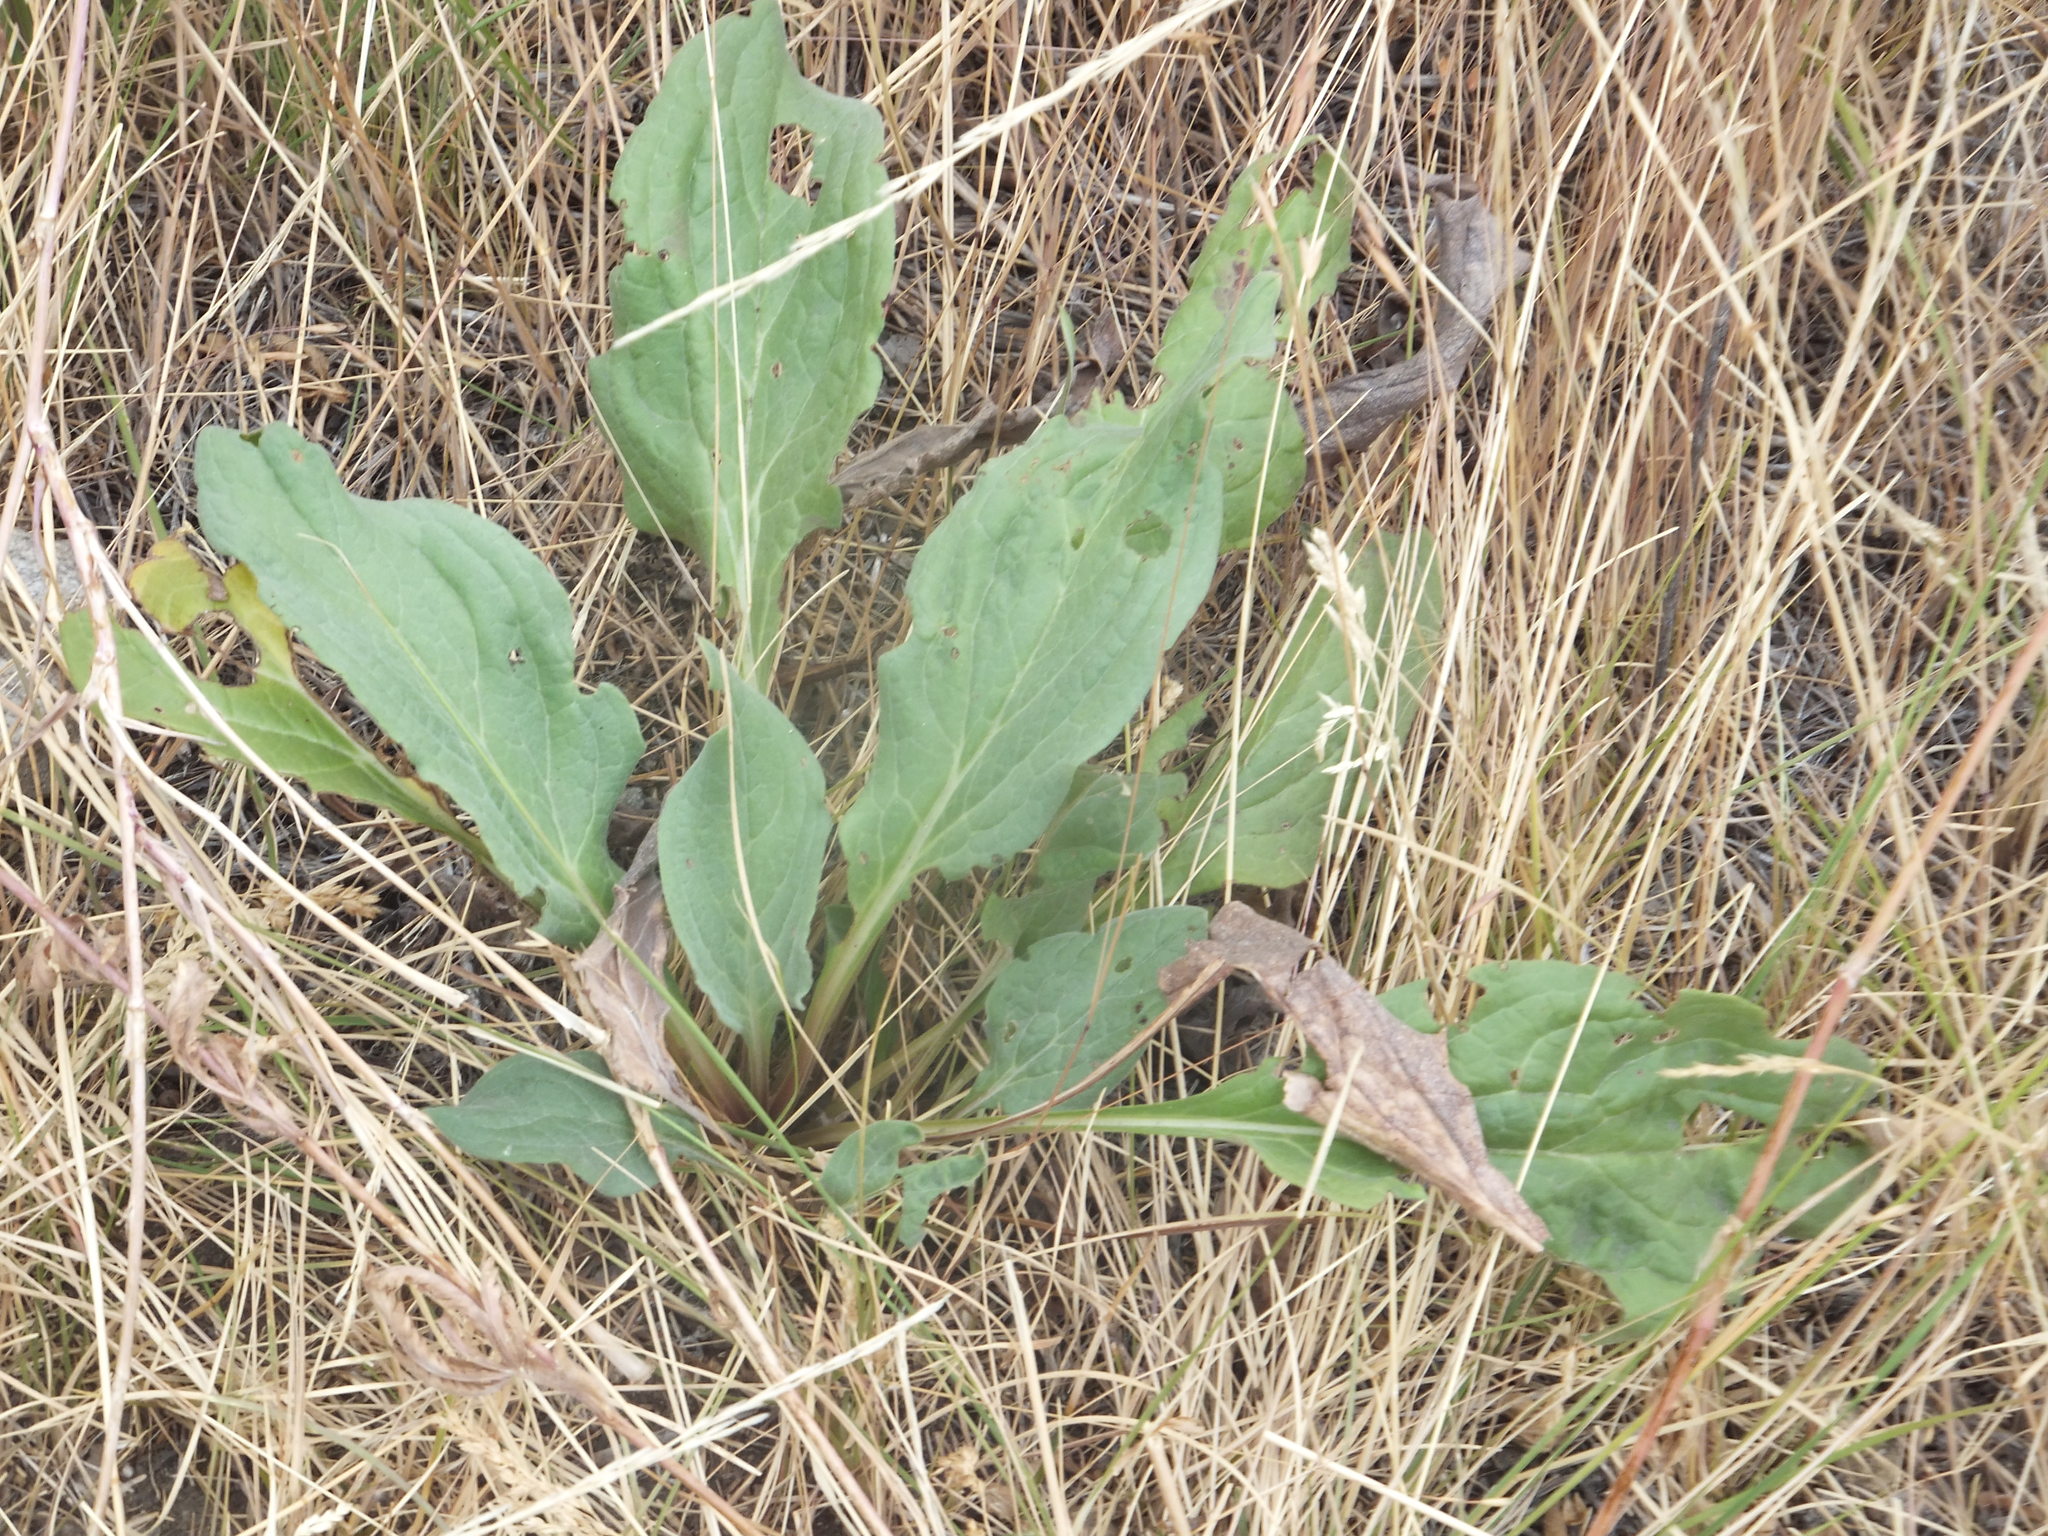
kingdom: Plantae
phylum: Tracheophyta
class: Magnoliopsida
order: Boraginales
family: Boraginaceae
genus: Cynoglossum
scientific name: Cynoglossum officinale
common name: Hound's-tongue
